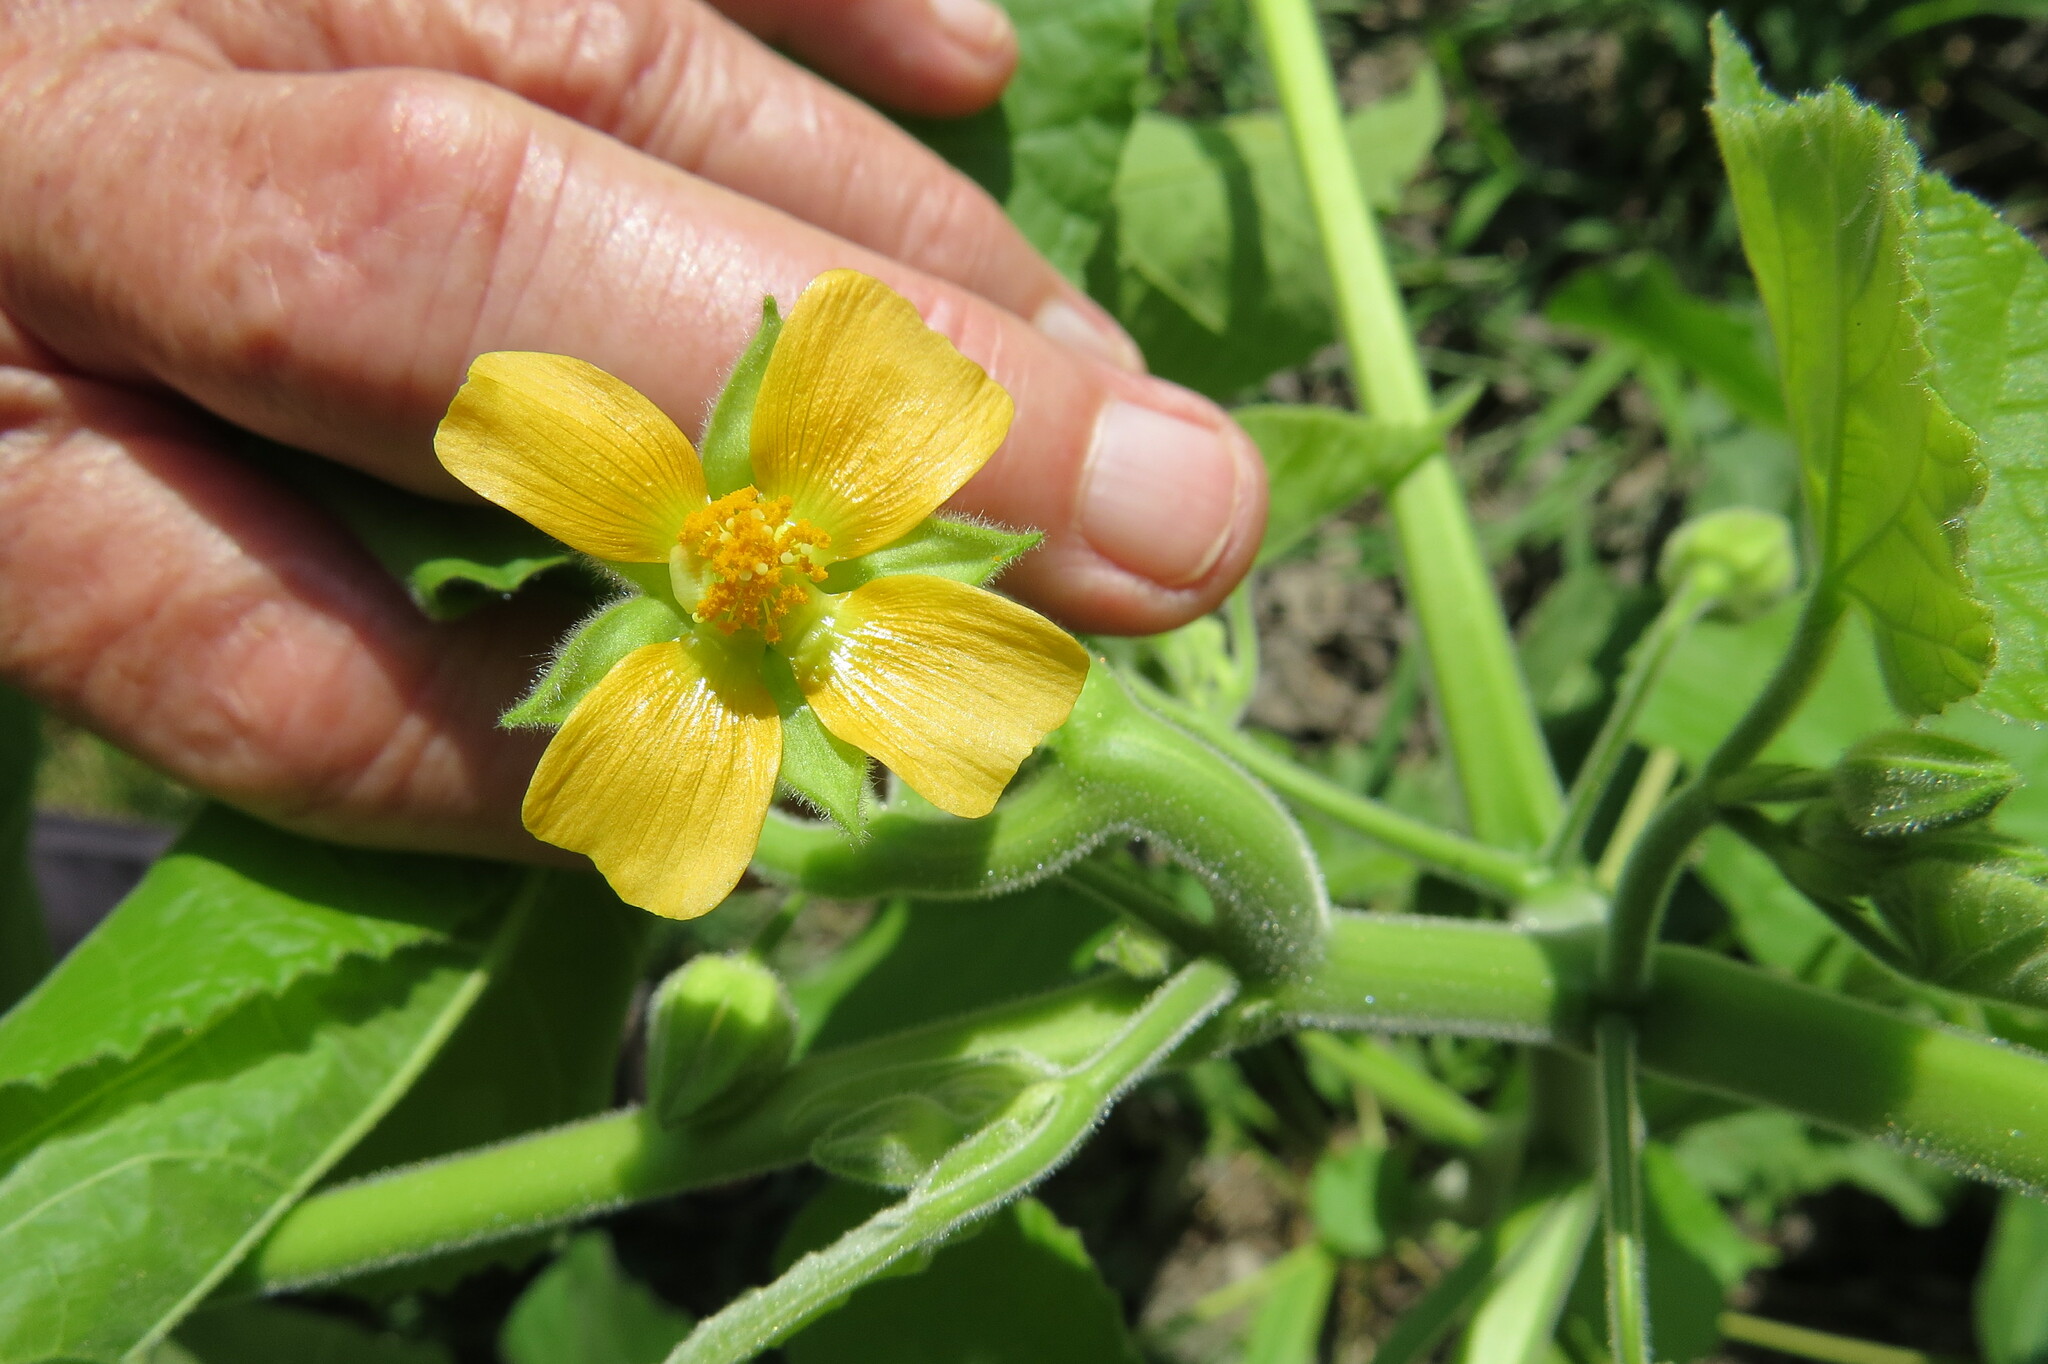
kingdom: Plantae
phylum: Tracheophyta
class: Magnoliopsida
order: Malvales
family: Malvaceae
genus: Abutilon
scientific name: Abutilon theophrasti
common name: Velvetleaf
